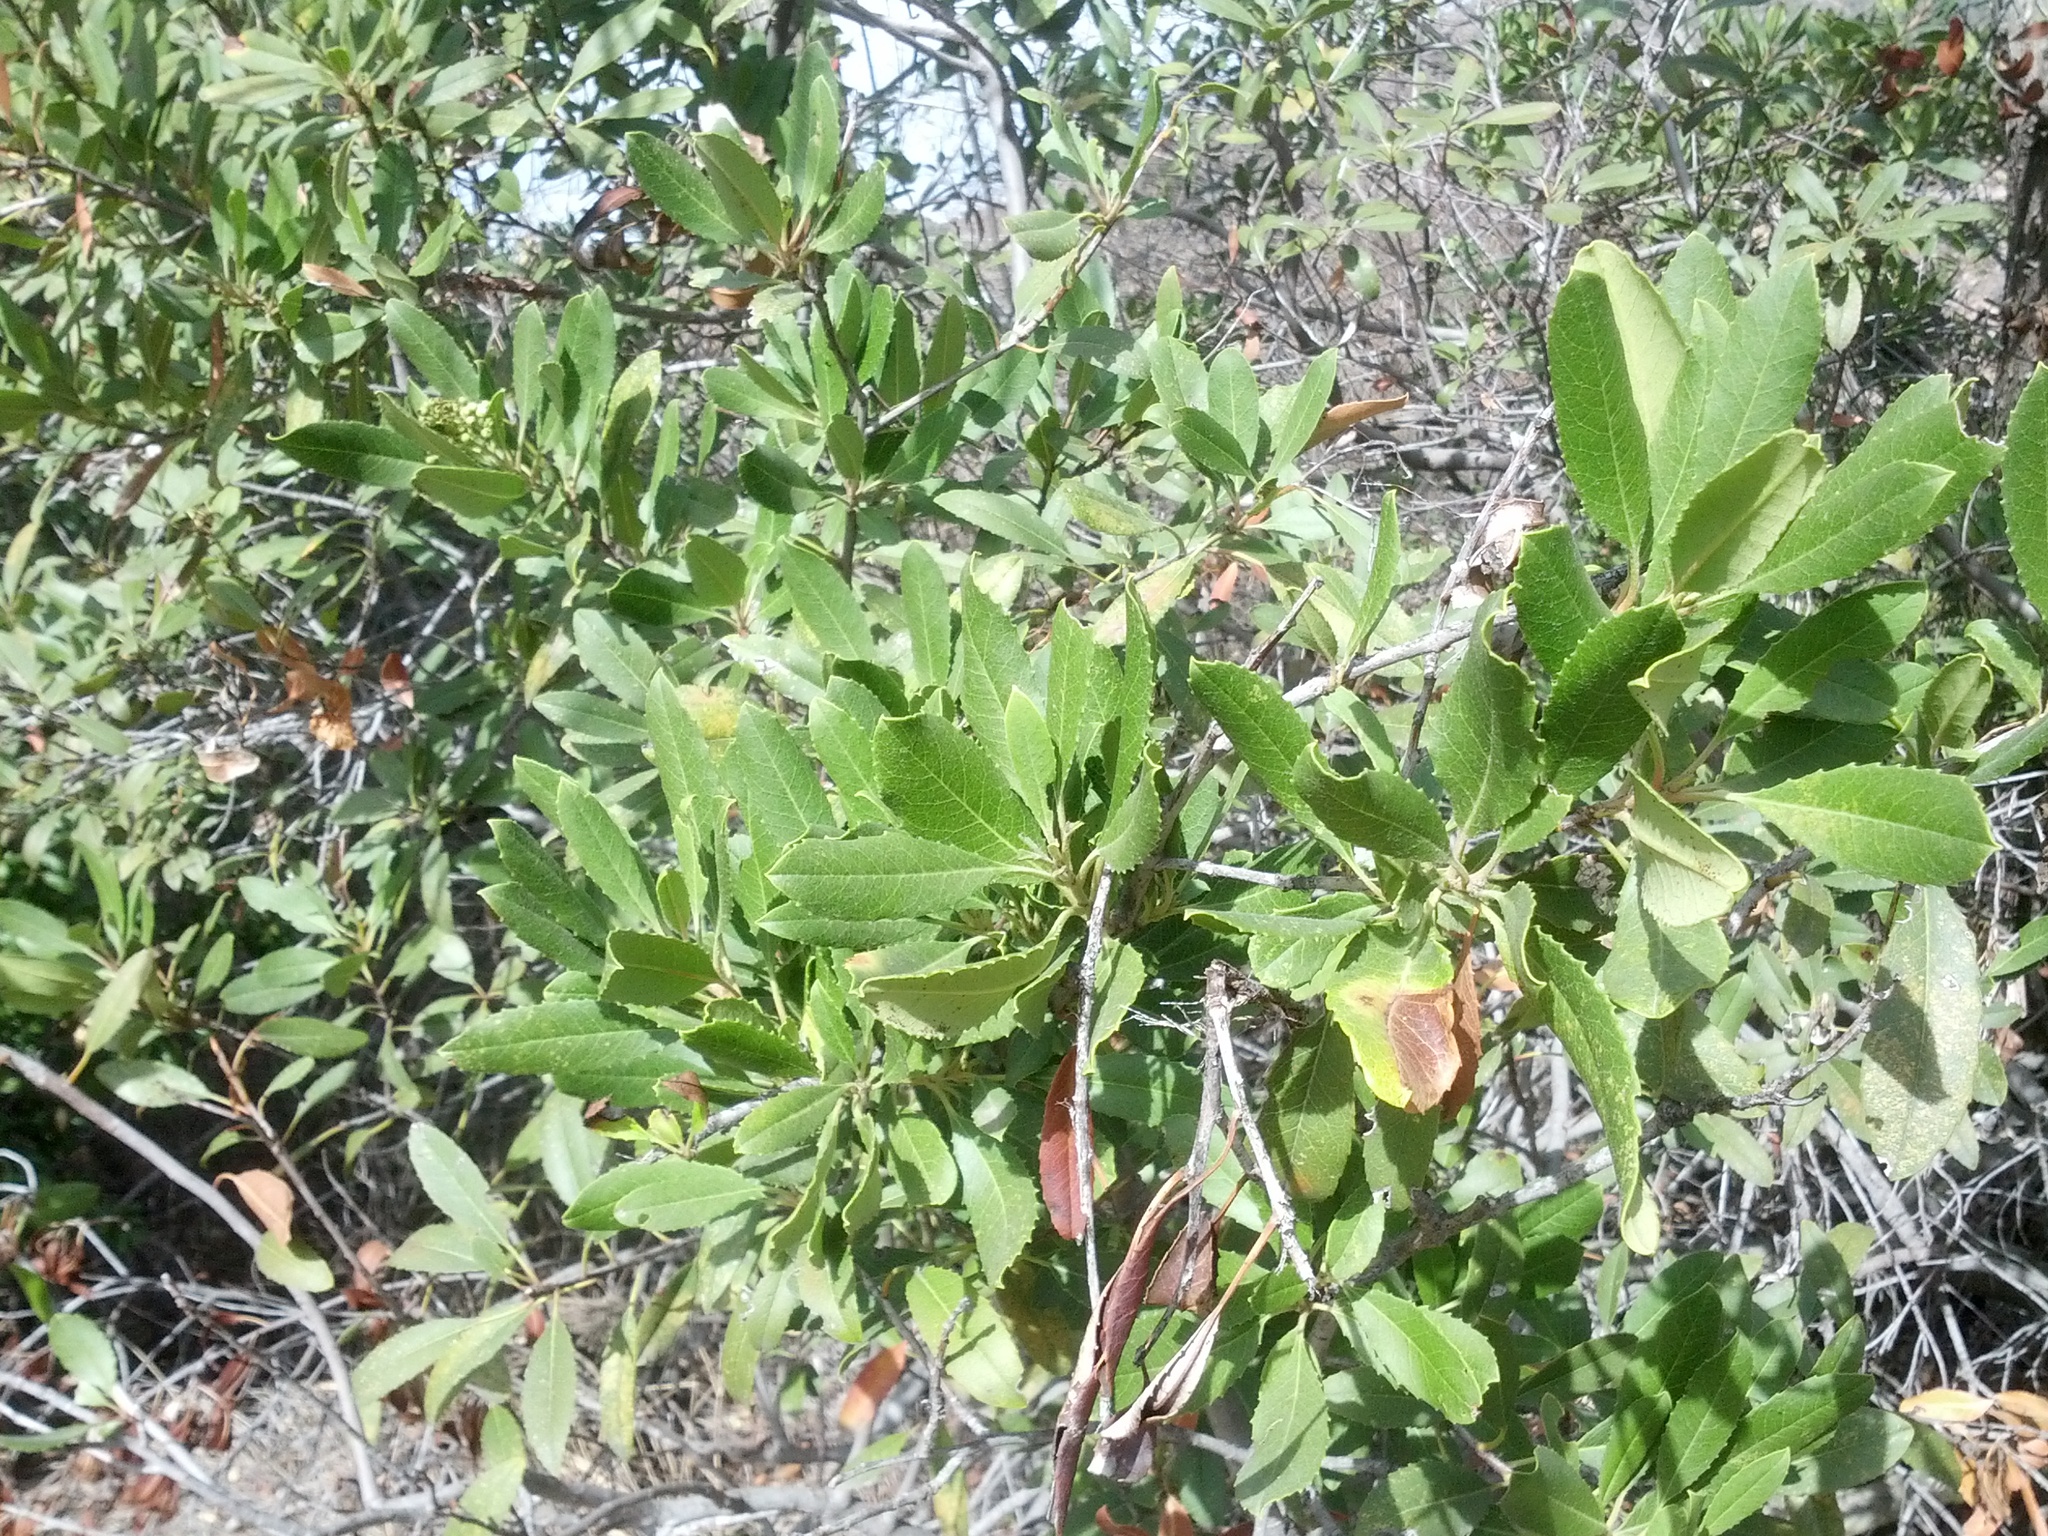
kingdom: Plantae
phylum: Tracheophyta
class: Magnoliopsida
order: Rosales
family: Rosaceae
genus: Heteromeles
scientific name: Heteromeles arbutifolia
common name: California-holly
